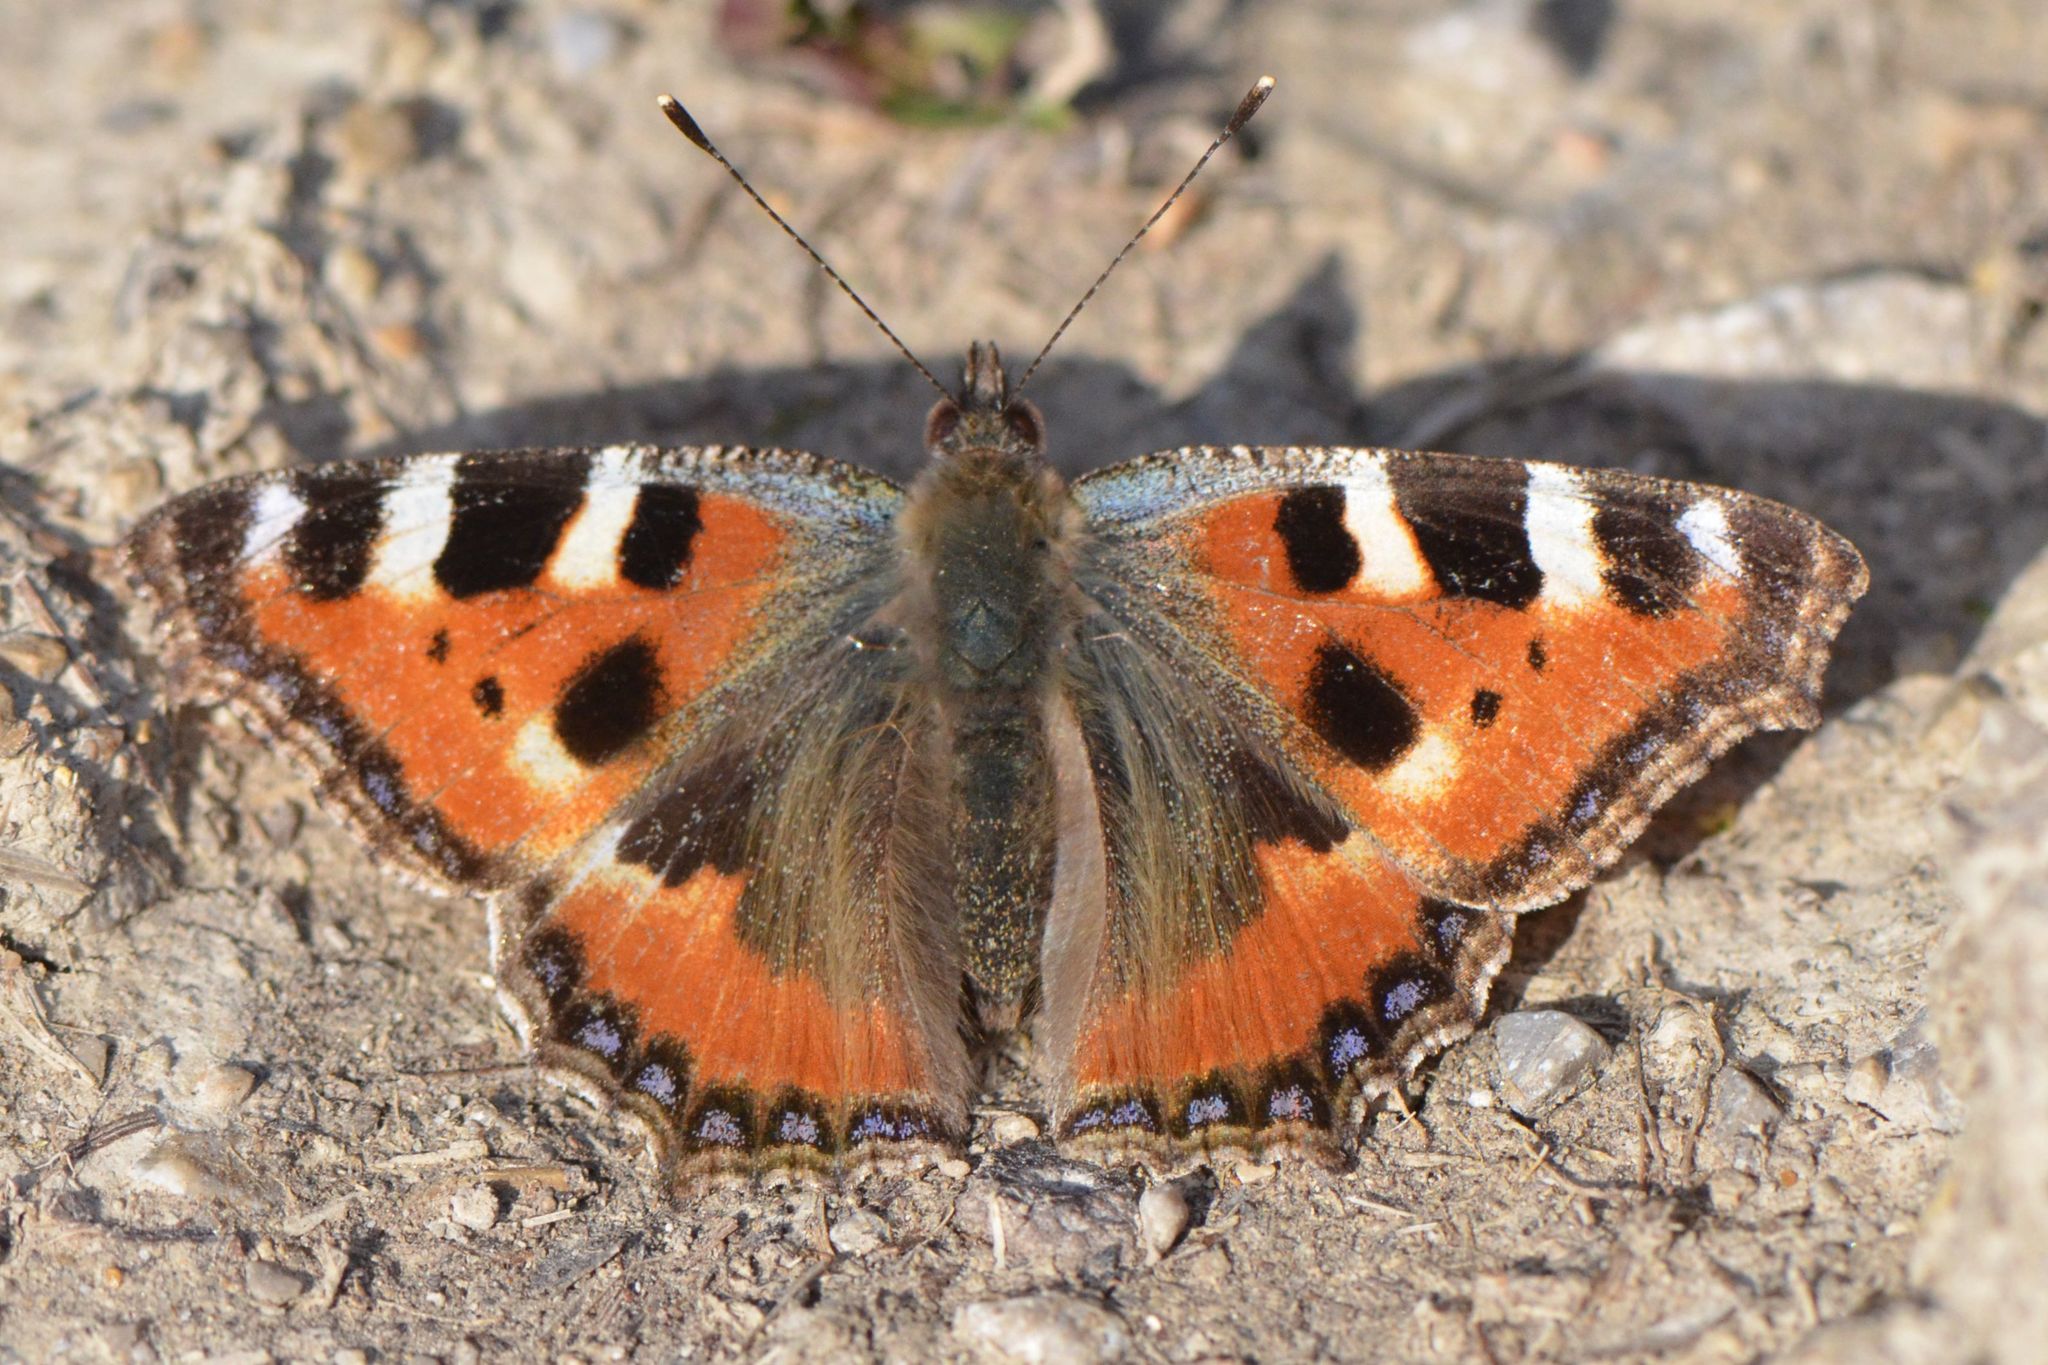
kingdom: Animalia
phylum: Arthropoda
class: Insecta
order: Lepidoptera
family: Nymphalidae
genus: Aglais
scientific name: Aglais urticae
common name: Small tortoiseshell
